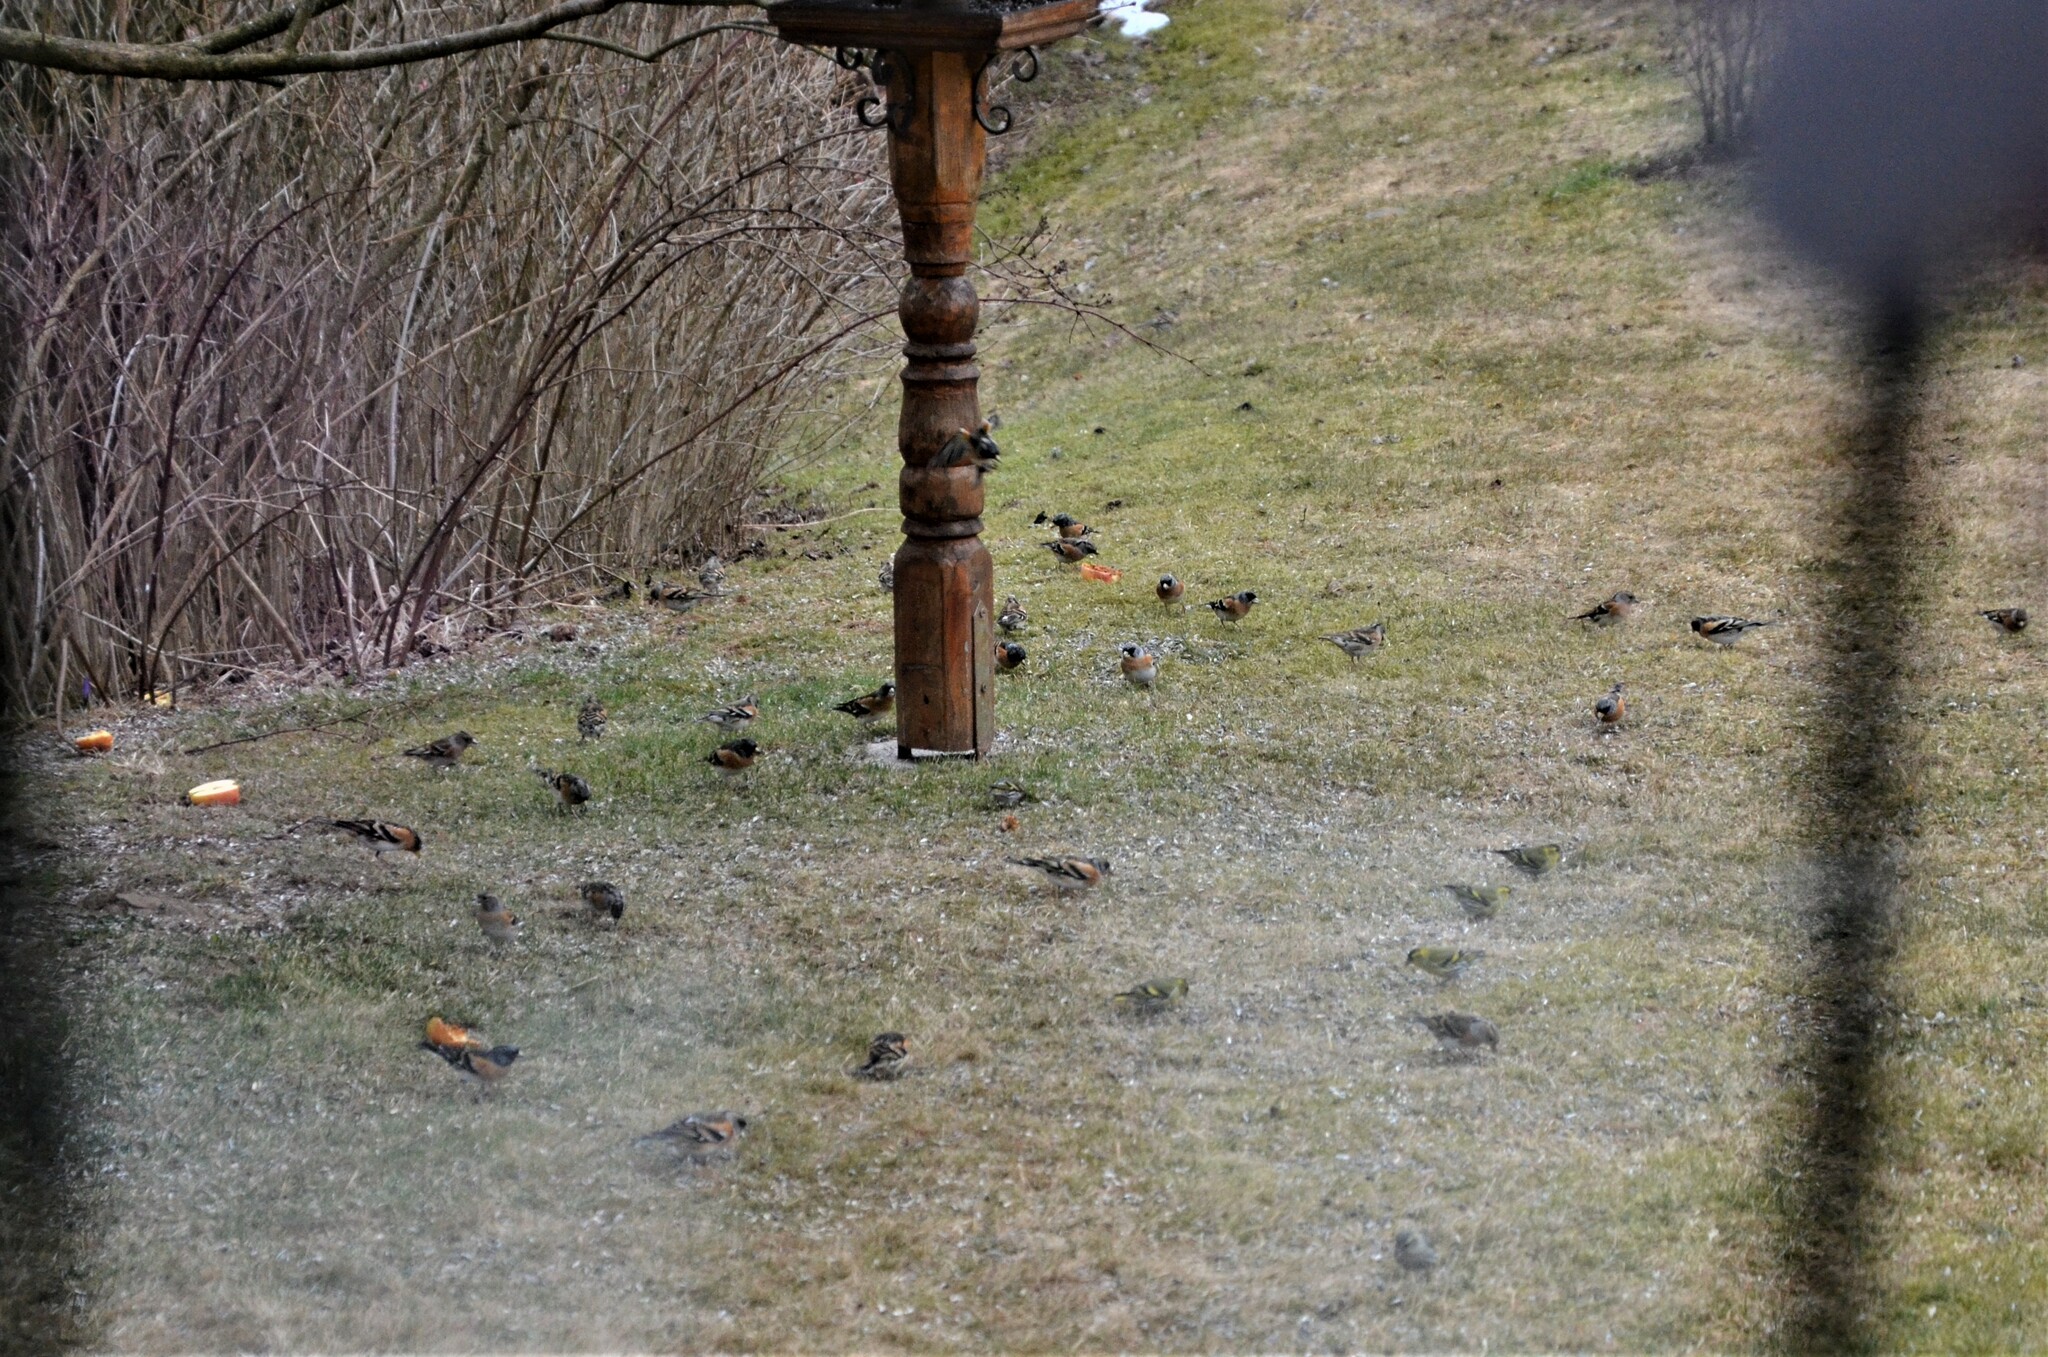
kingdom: Animalia
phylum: Chordata
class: Aves
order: Passeriformes
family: Fringillidae
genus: Fringilla
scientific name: Fringilla montifringilla
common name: Brambling
